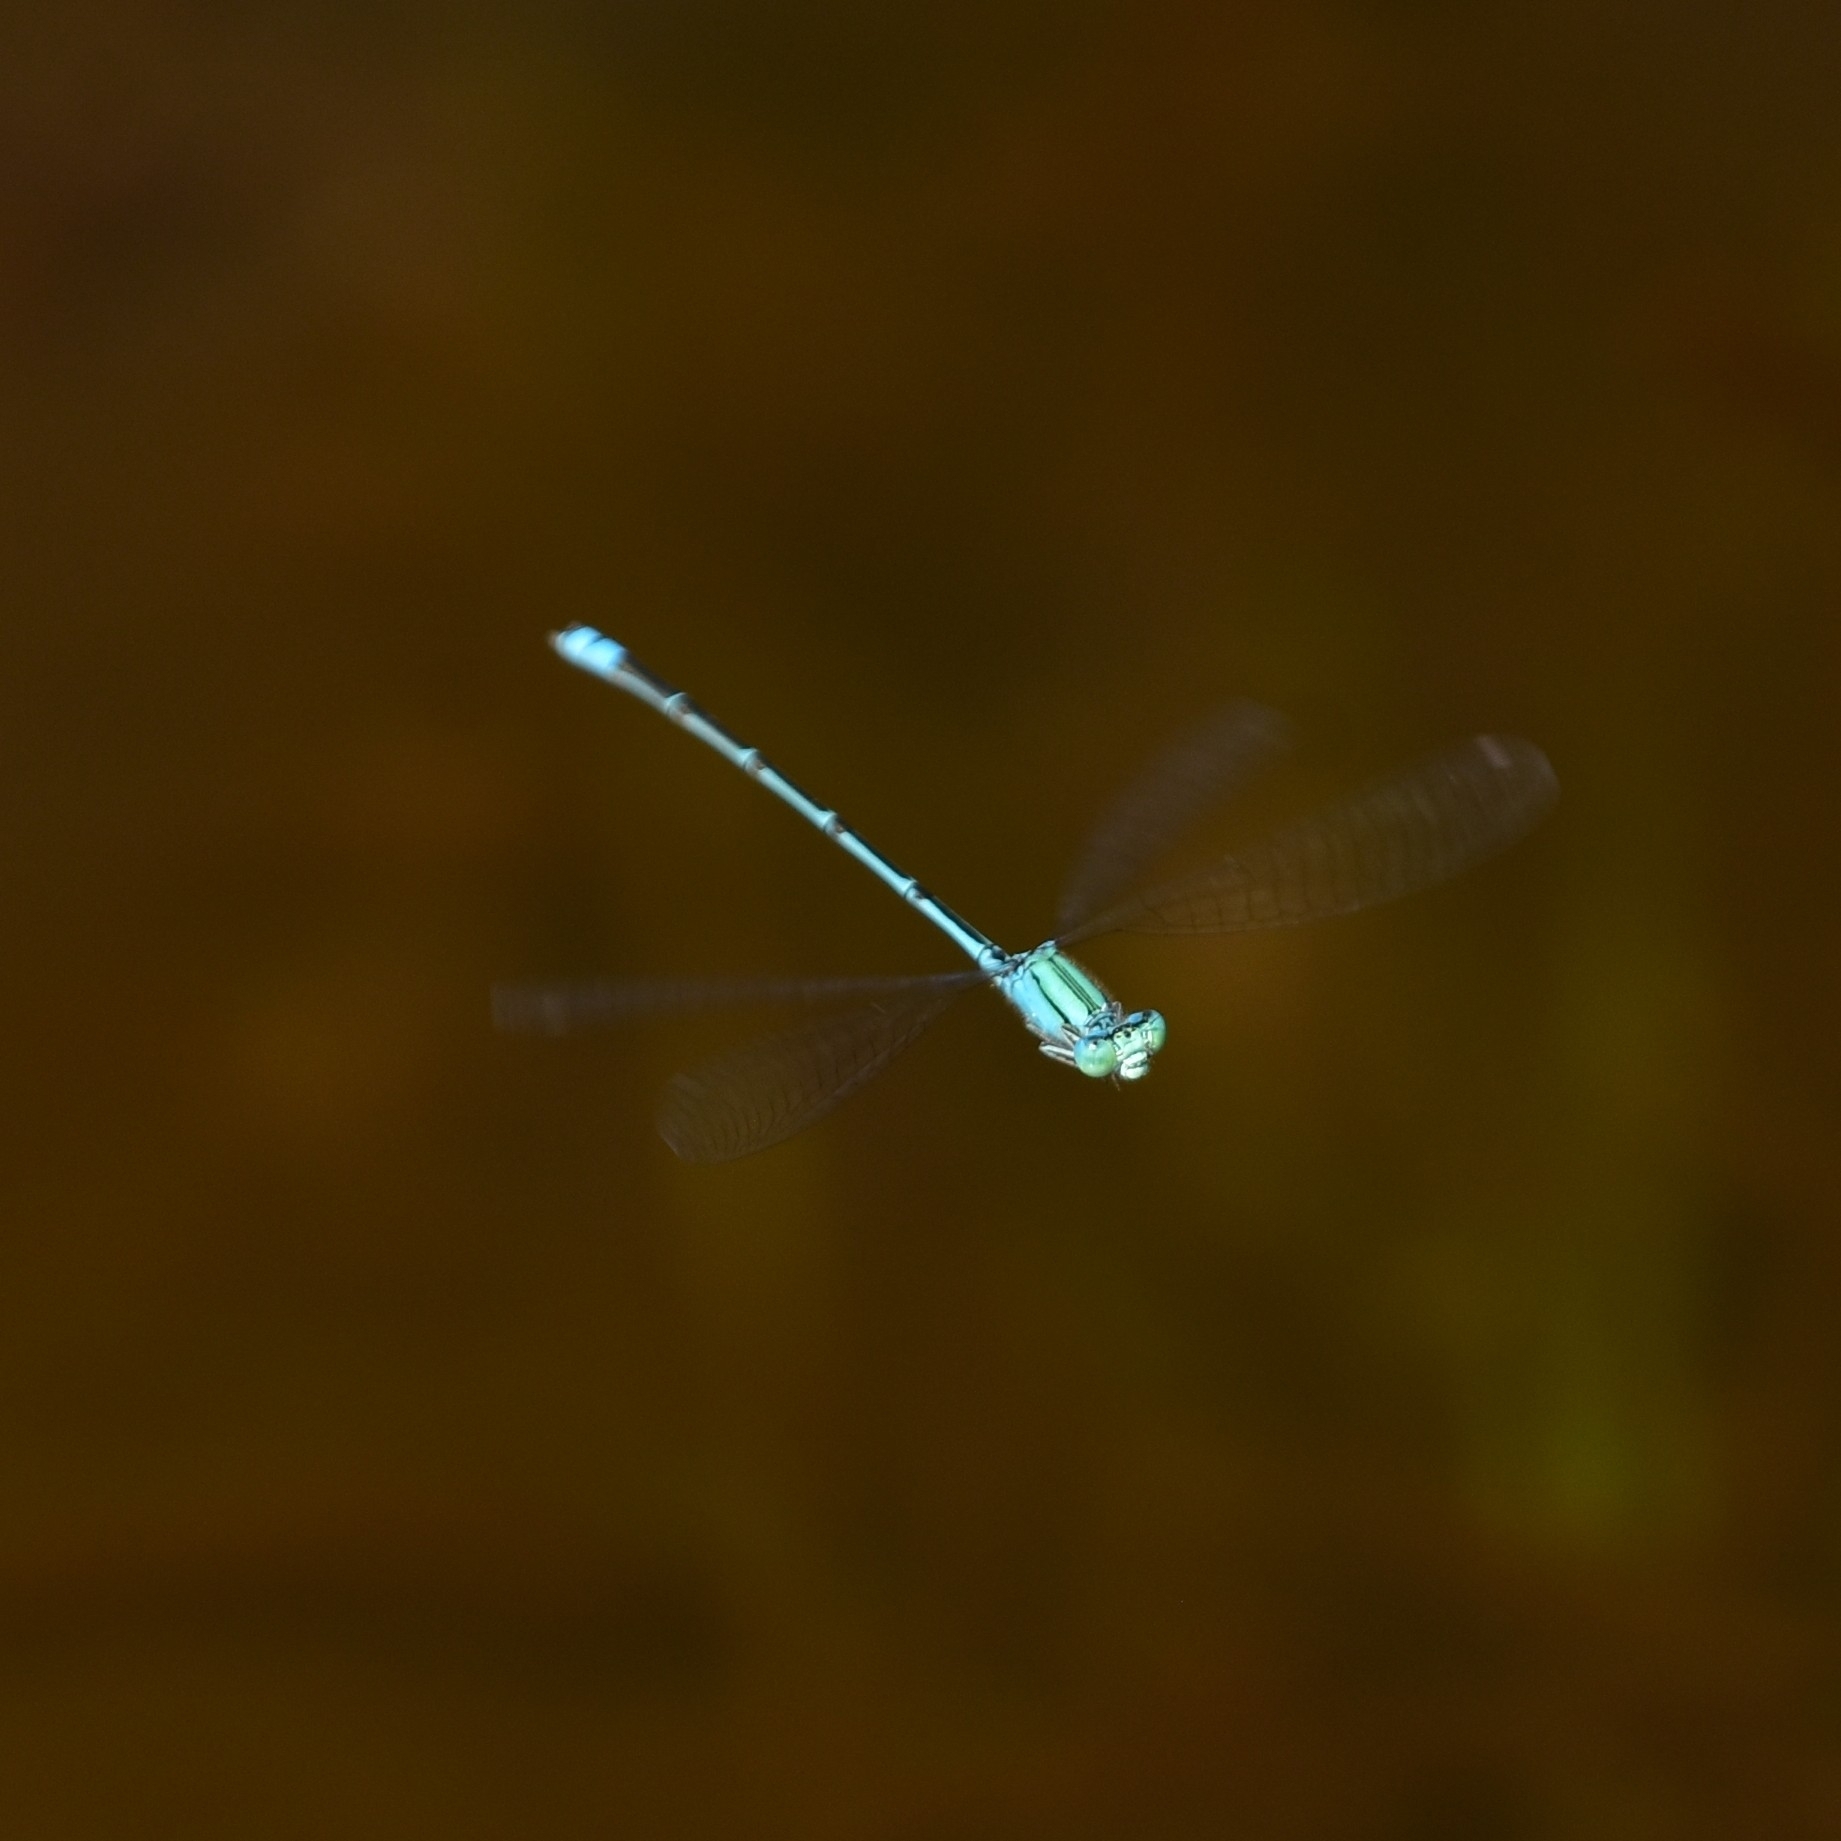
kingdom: Animalia
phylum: Arthropoda
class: Insecta
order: Odonata
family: Coenagrionidae
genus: Pseudagrion
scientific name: Pseudagrion decorum
